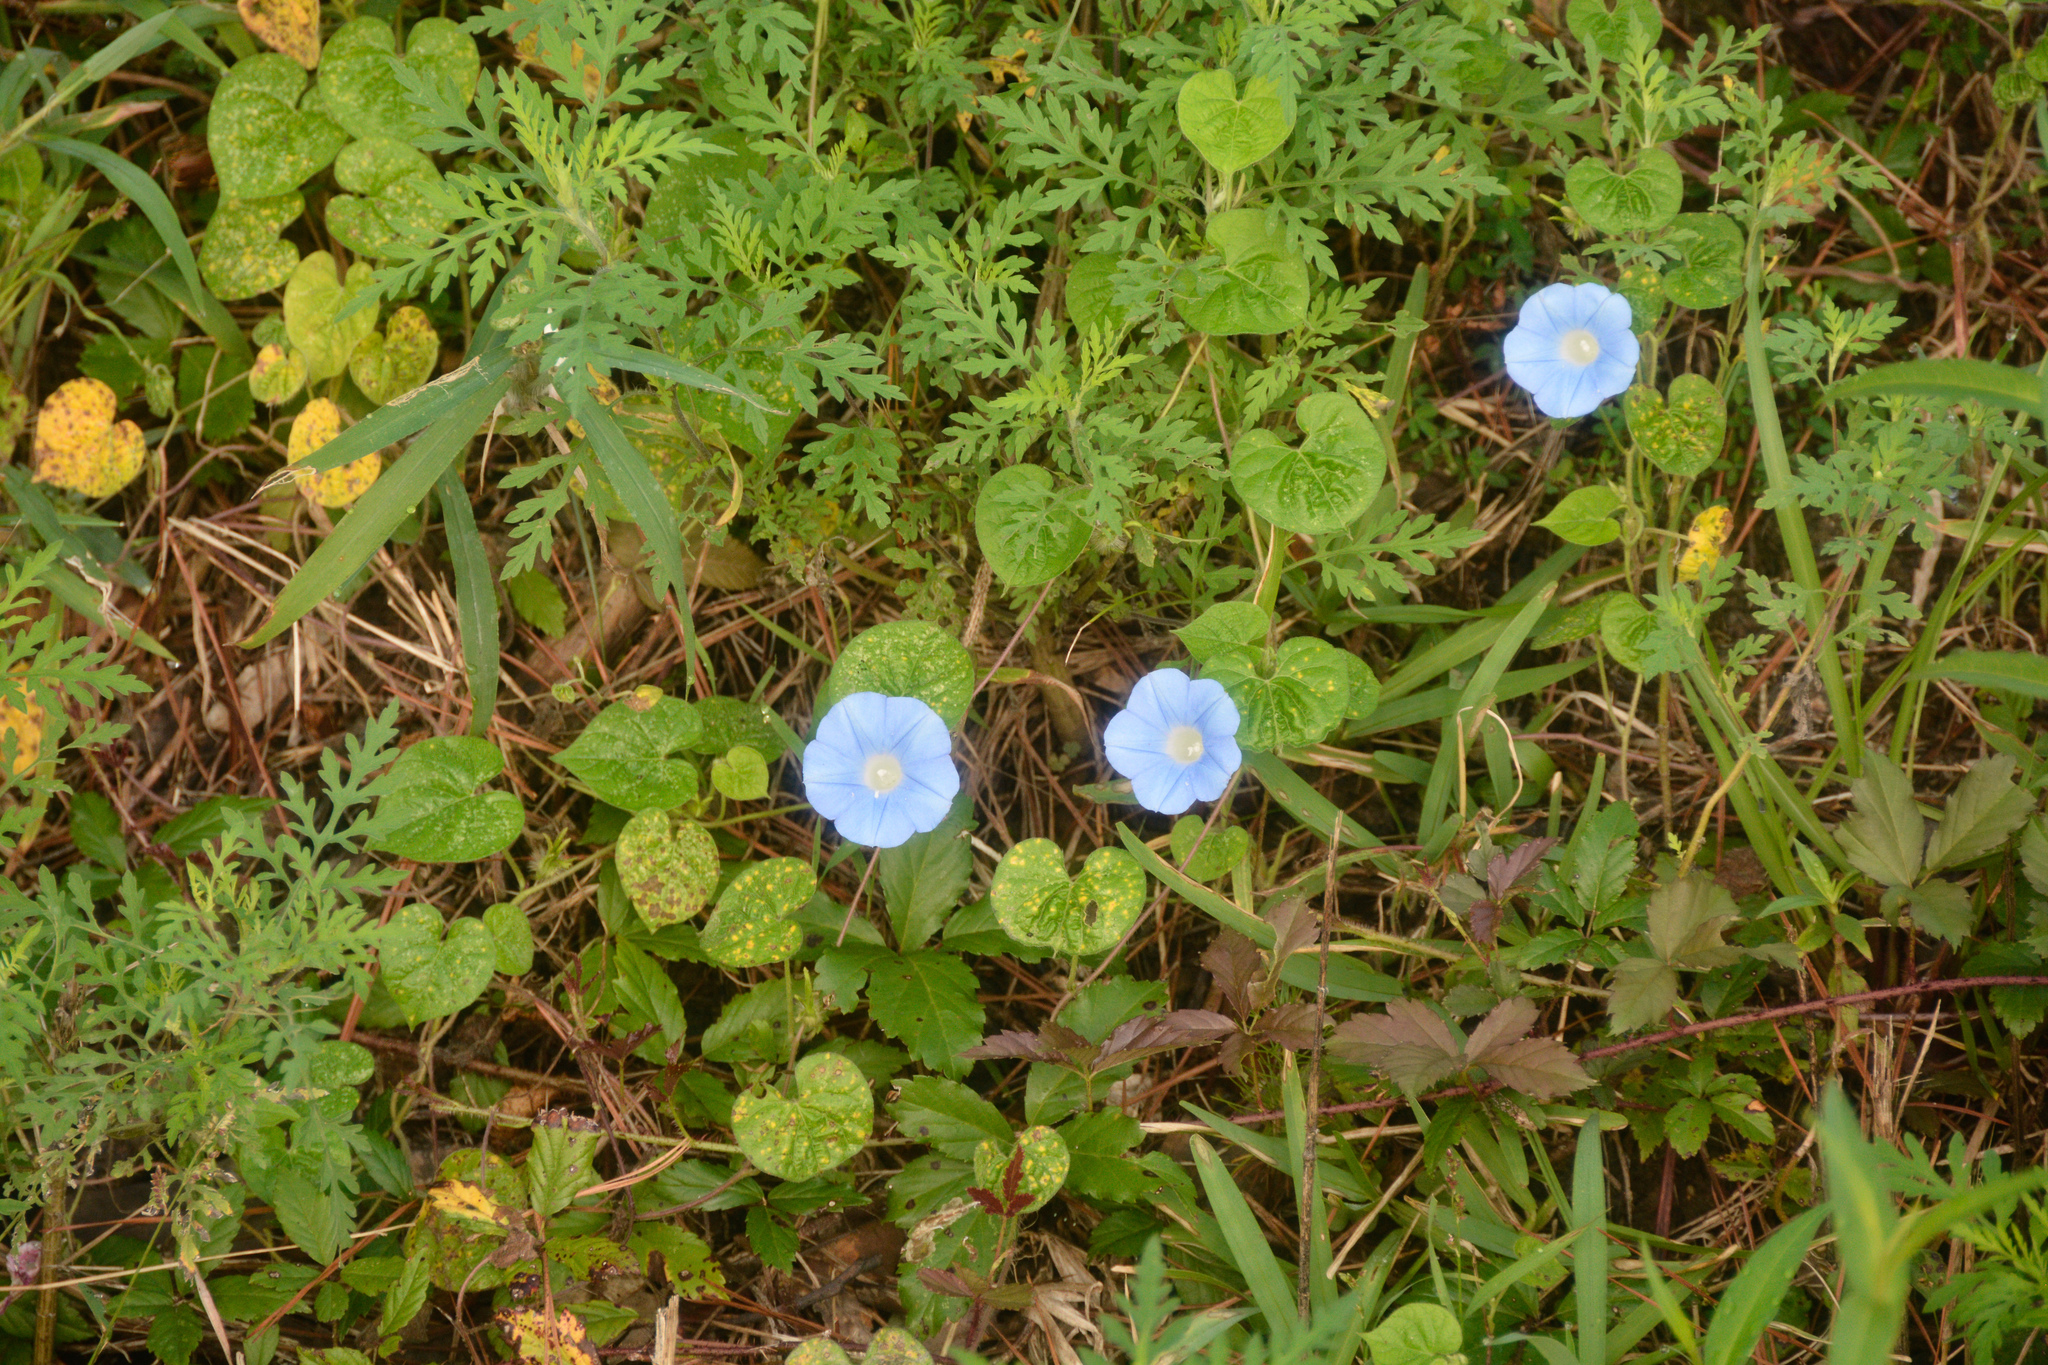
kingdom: Plantae
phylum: Tracheophyta
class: Magnoliopsida
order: Solanales
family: Convolvulaceae
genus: Ipomoea
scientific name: Ipomoea hederacea
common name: Ivy-leaved morning-glory
